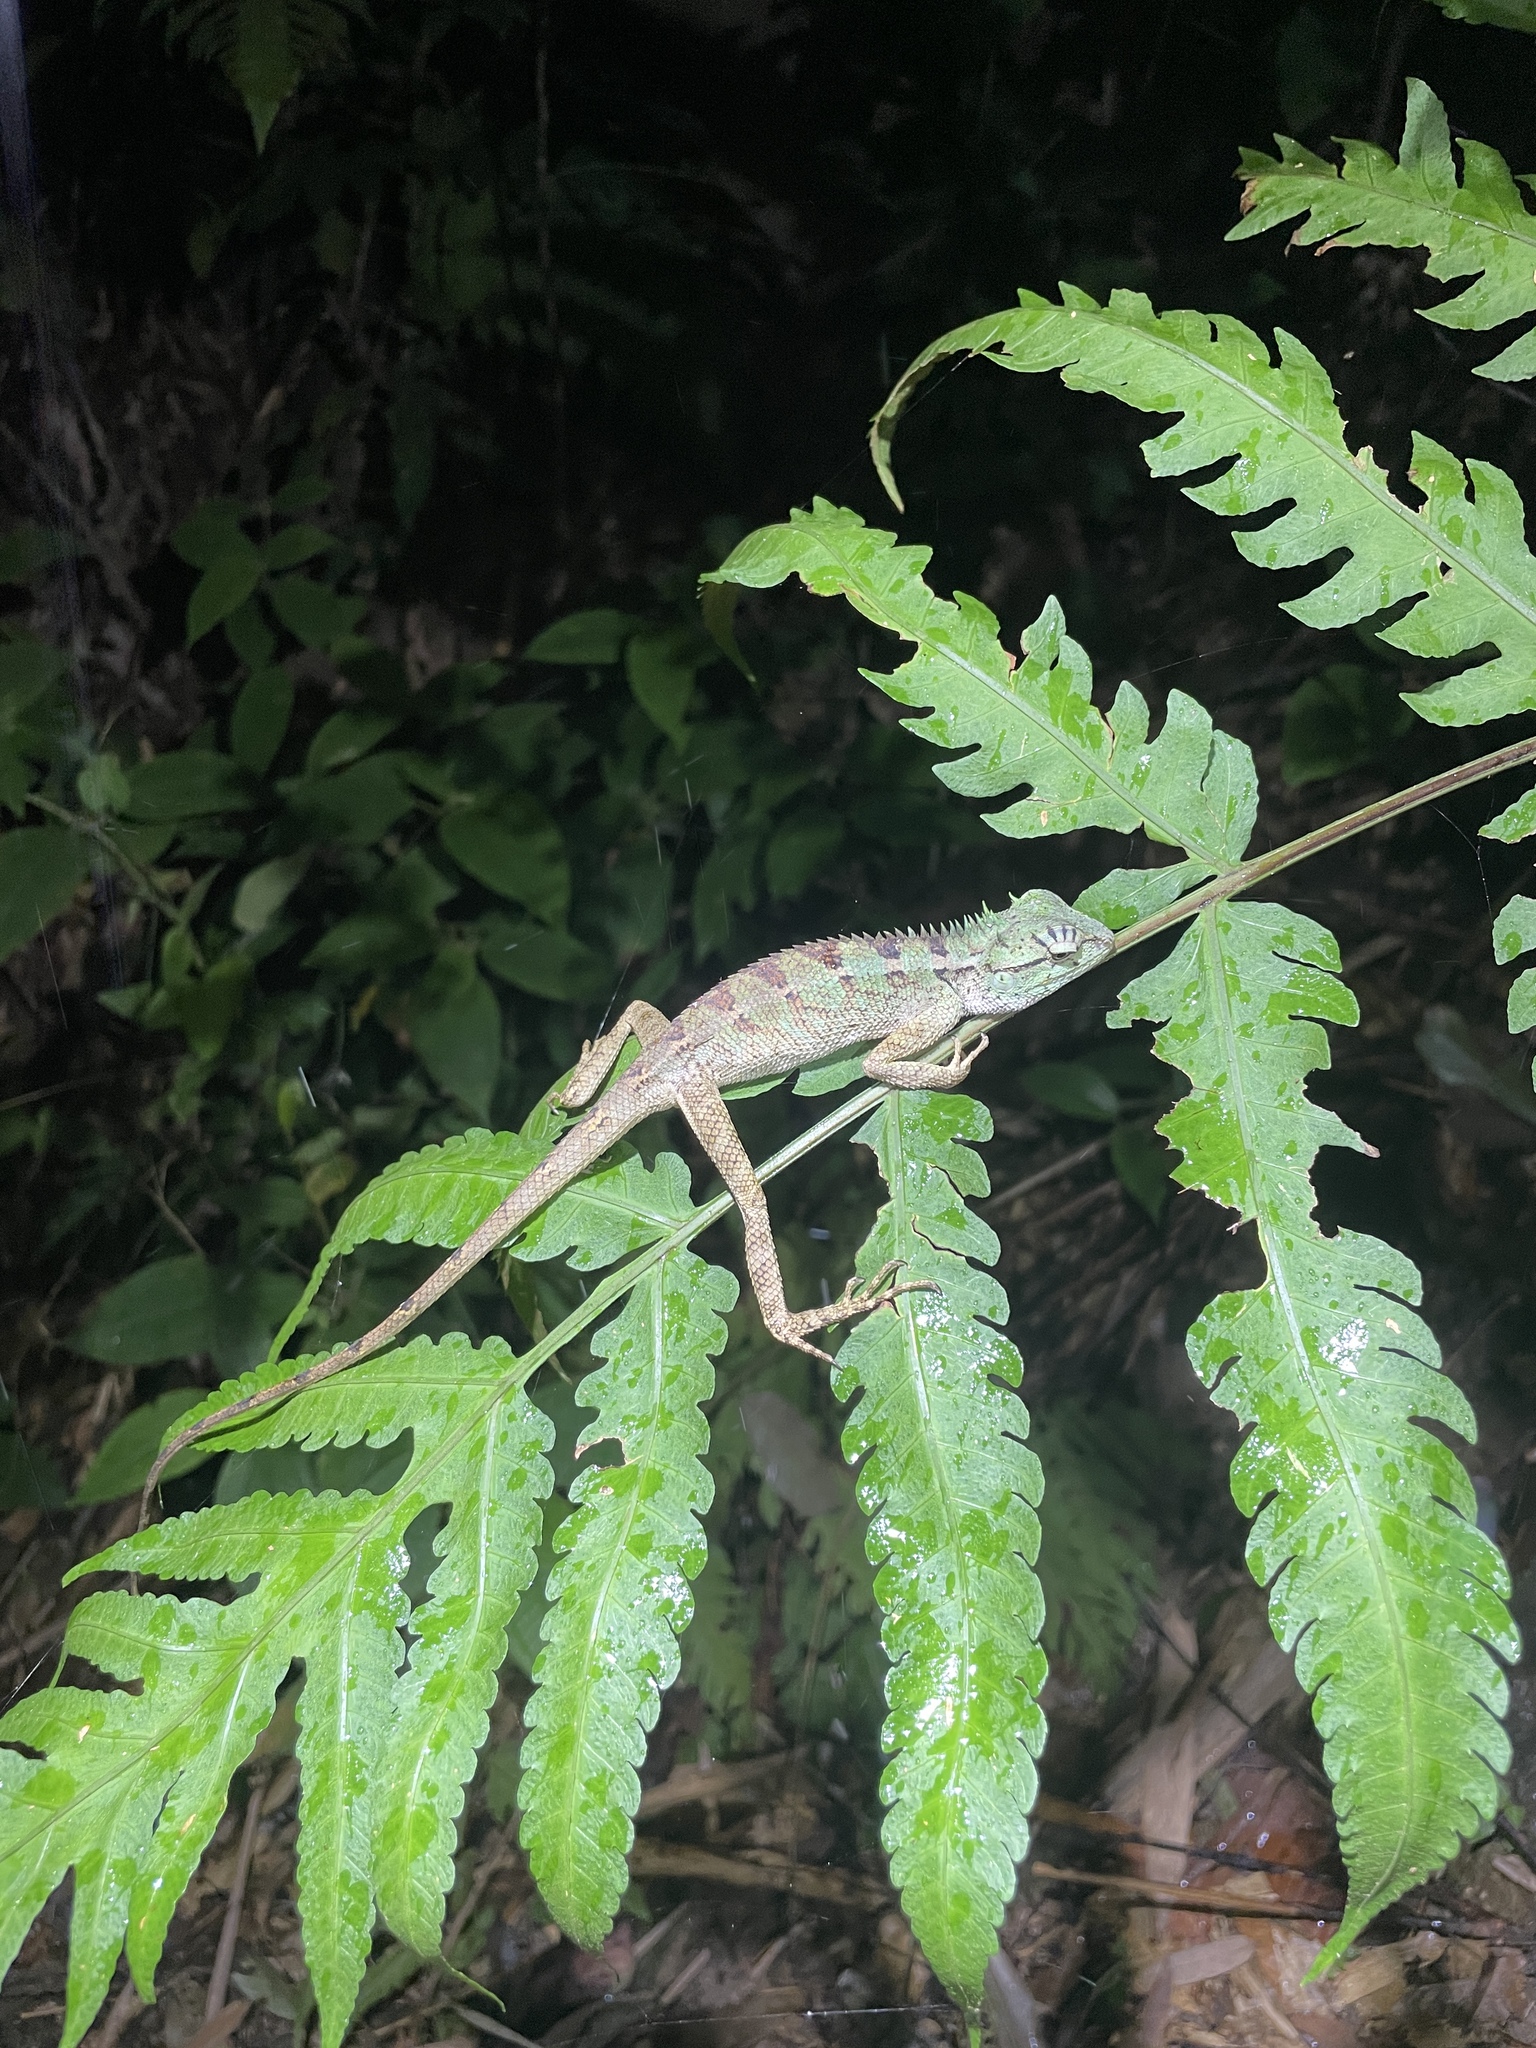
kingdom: Animalia
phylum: Chordata
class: Squamata
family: Agamidae
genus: Calotes
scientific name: Calotes emma
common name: Thailand bloodsucker
